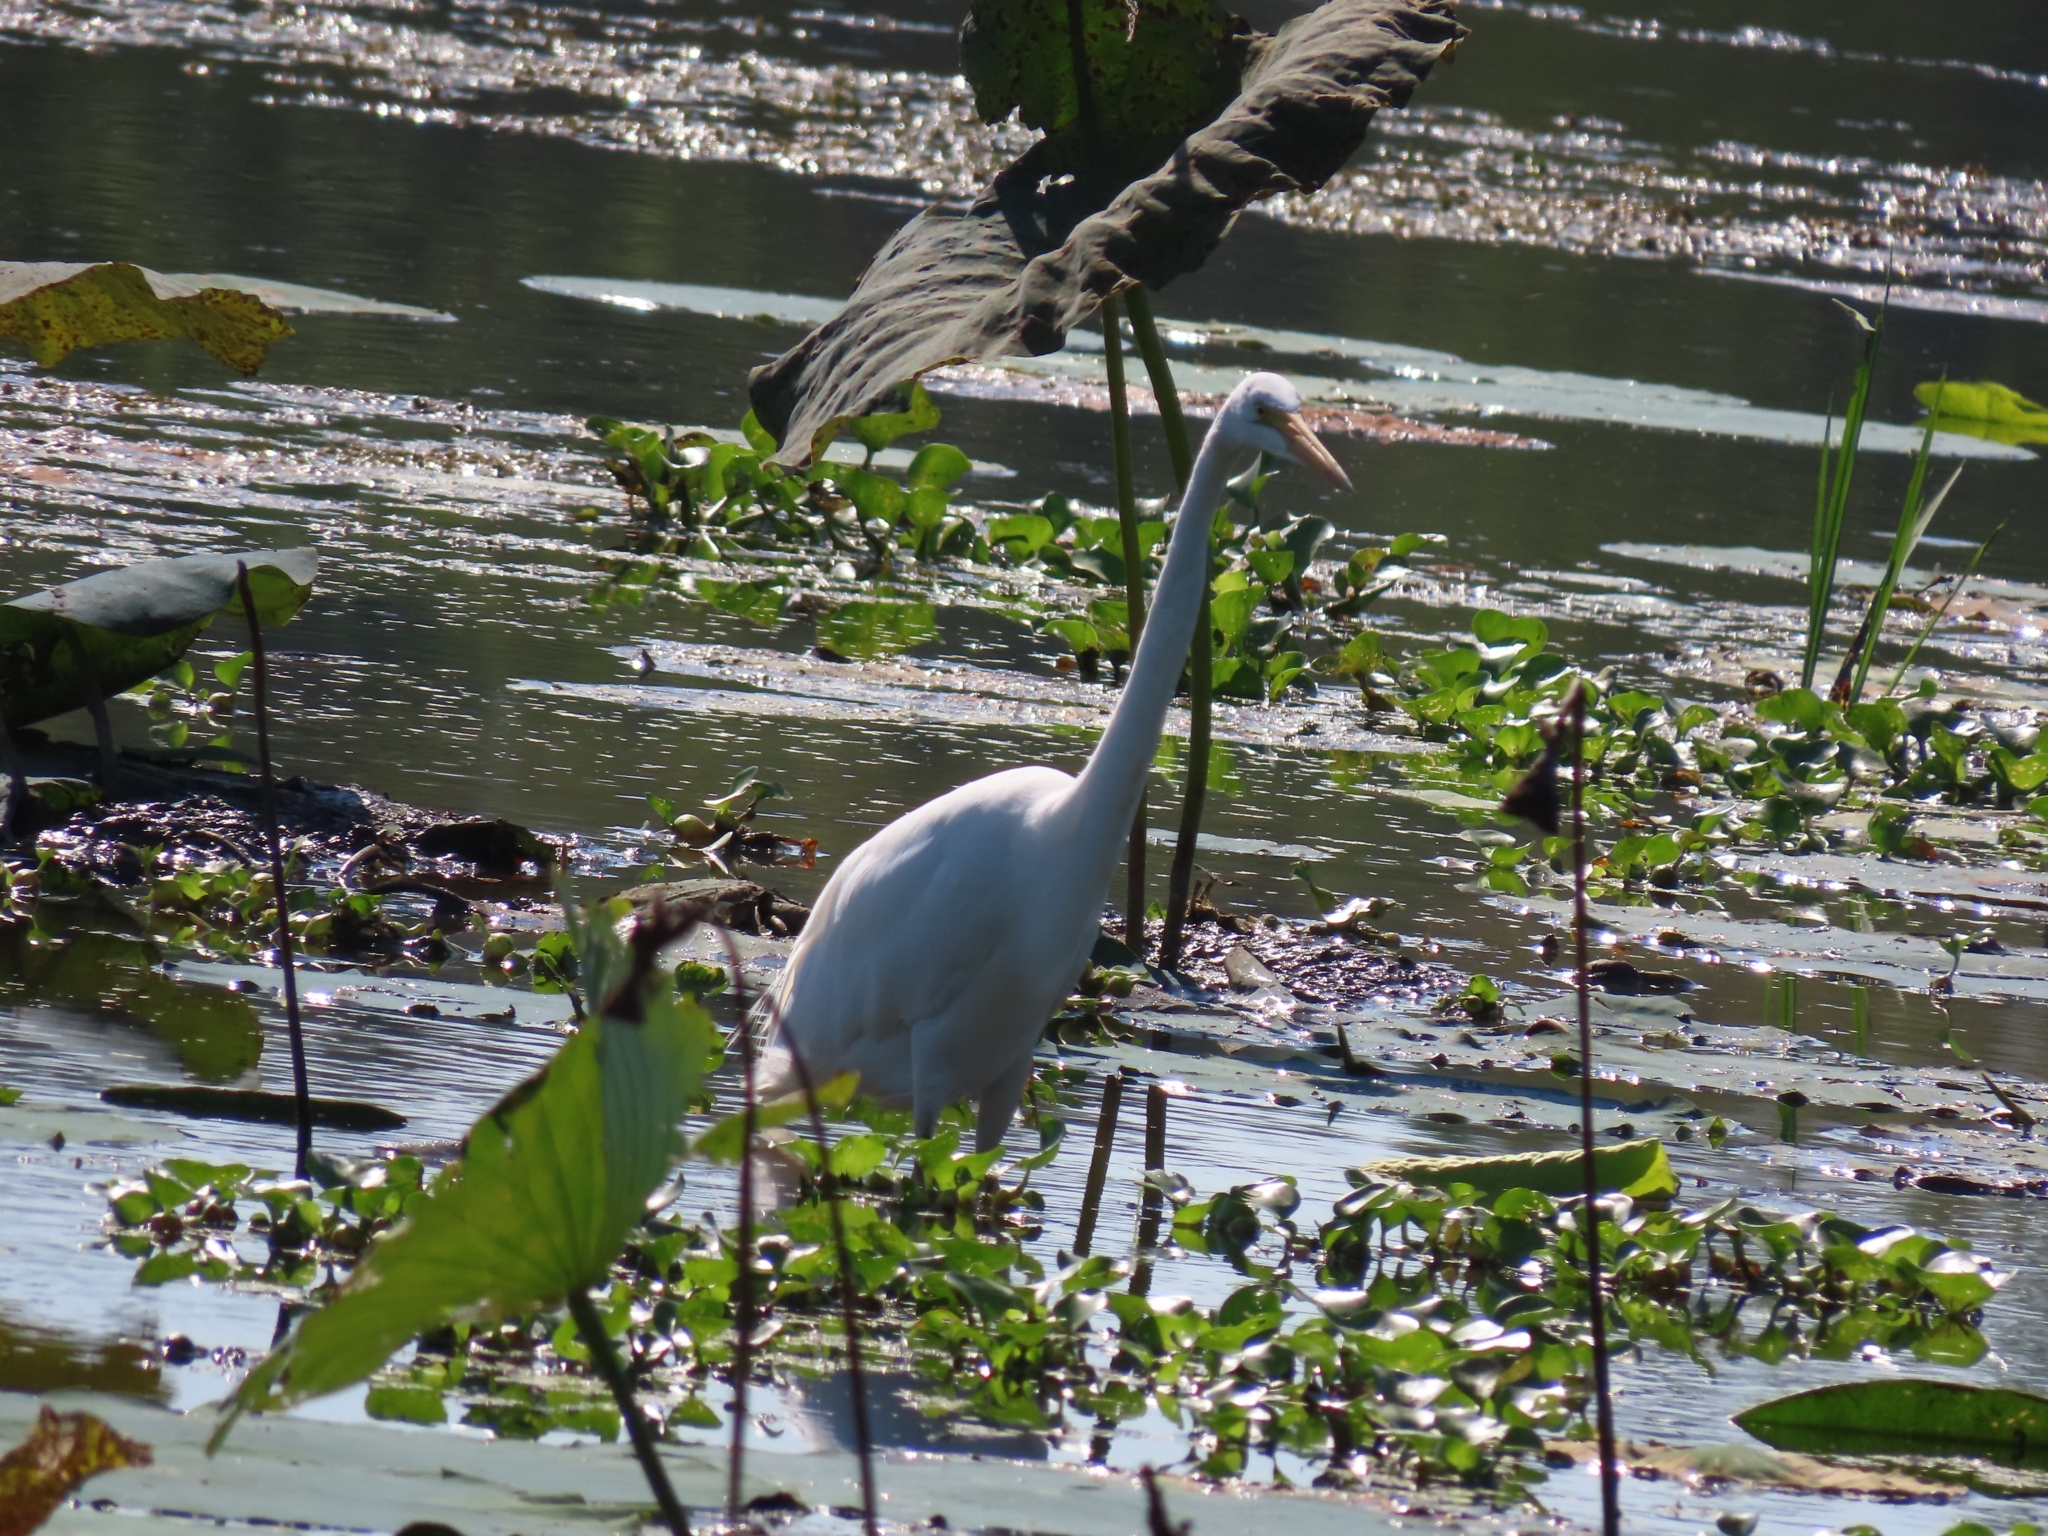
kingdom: Animalia
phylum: Chordata
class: Aves
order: Pelecaniformes
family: Ardeidae
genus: Ardea
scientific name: Ardea alba
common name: Great egret
